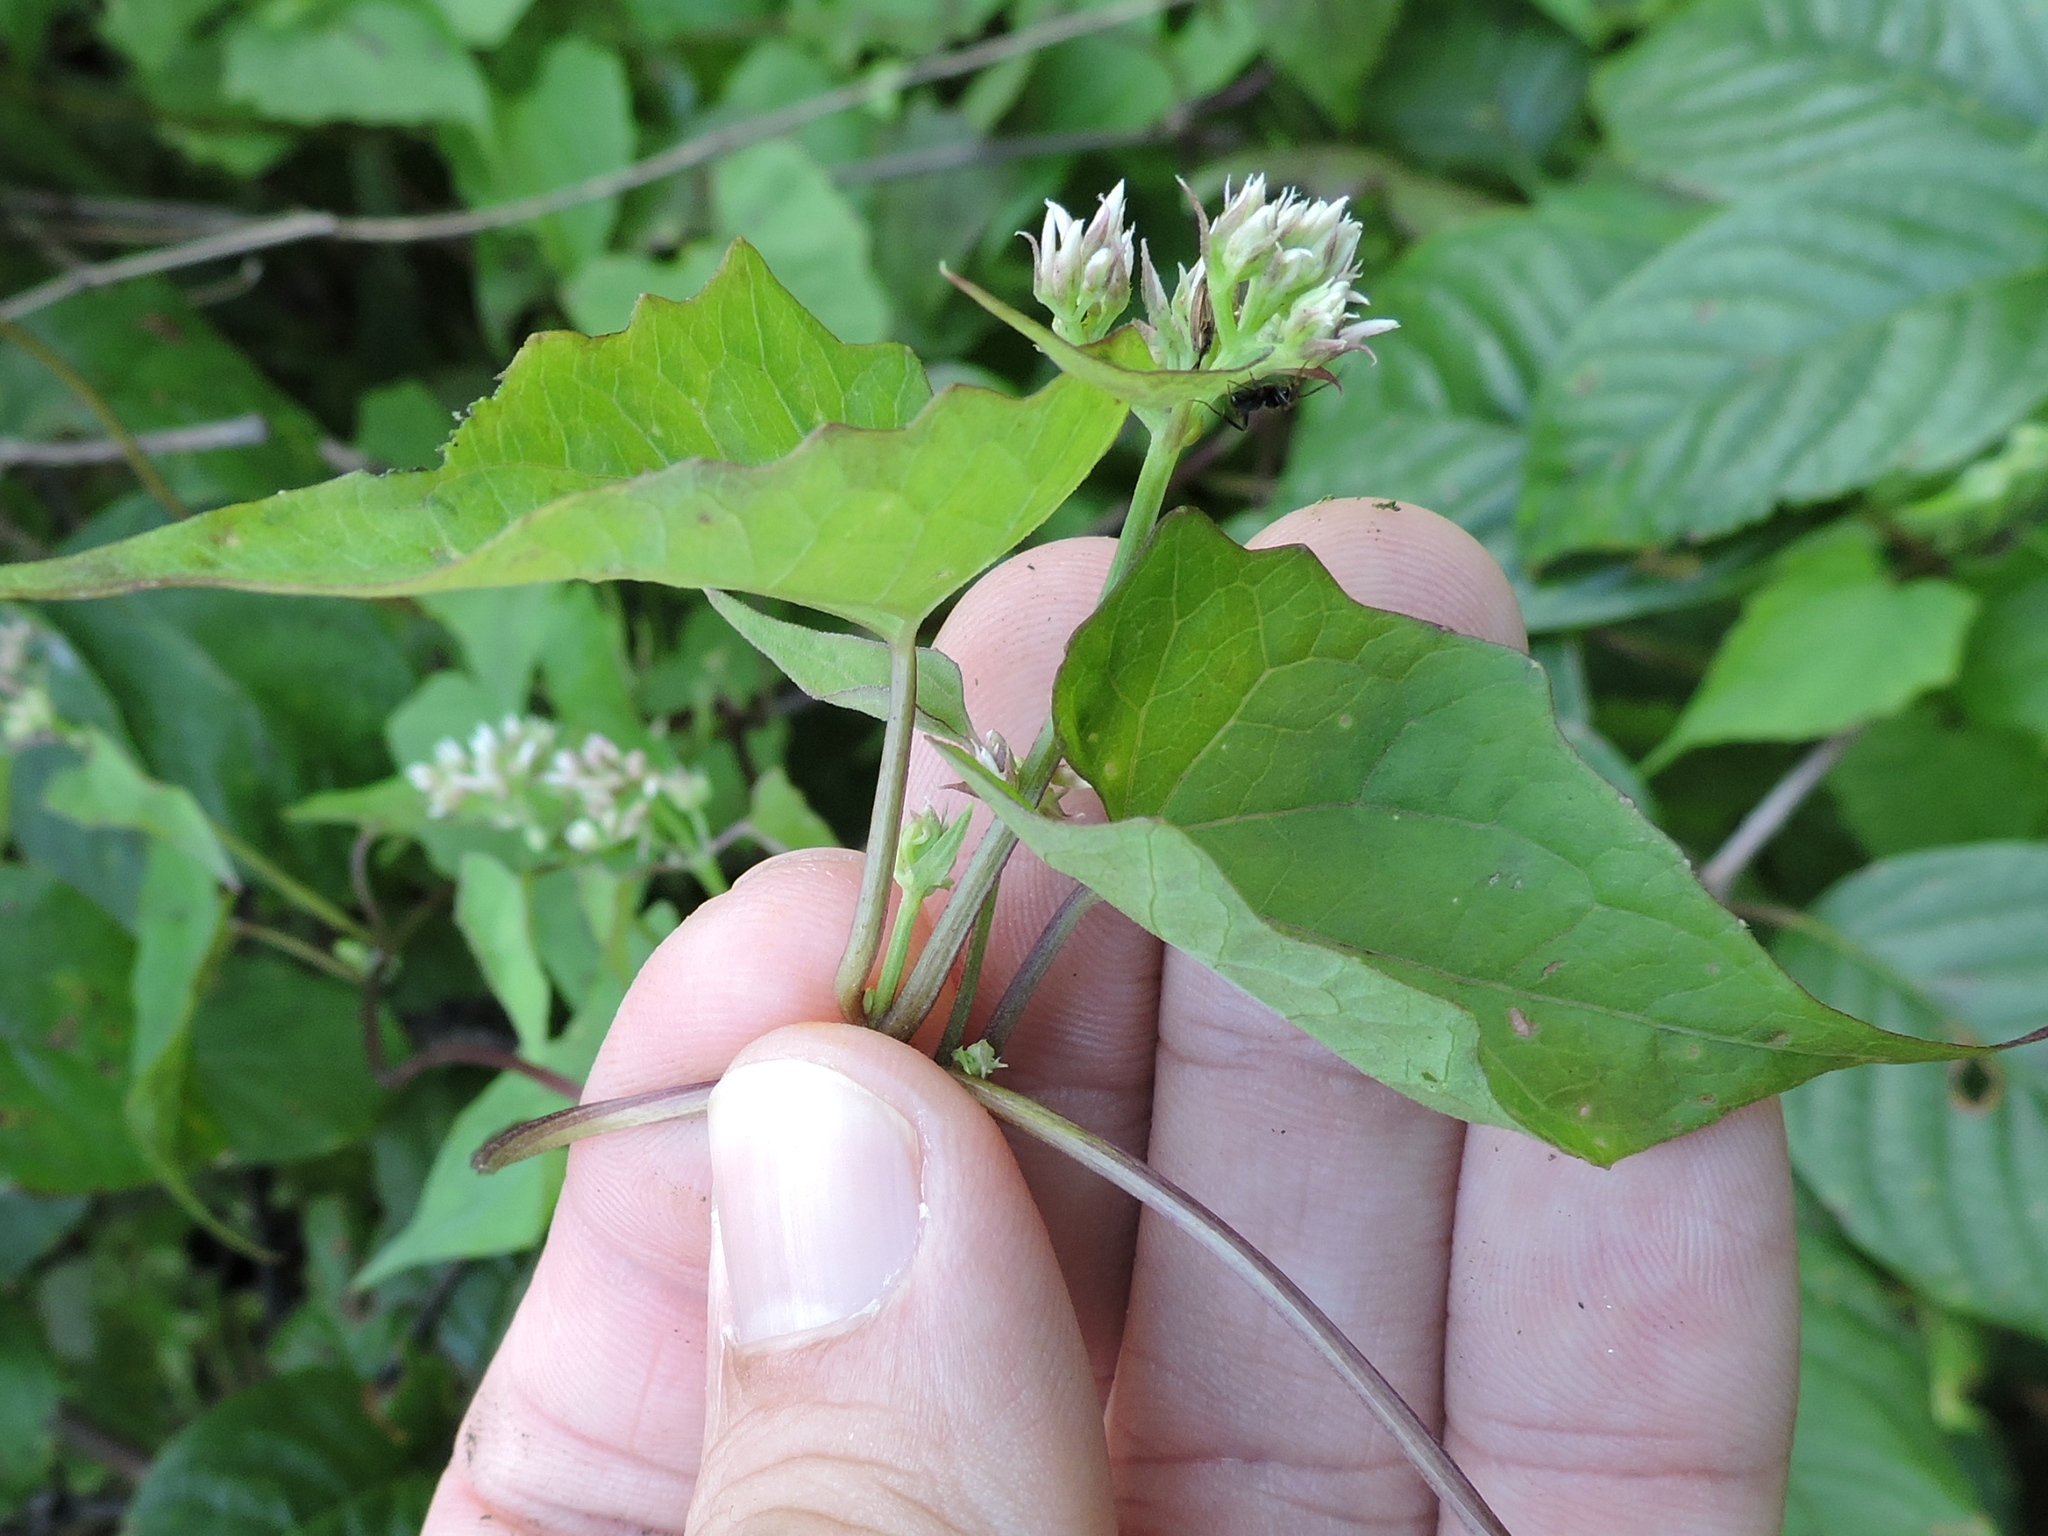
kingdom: Plantae
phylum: Tracheophyta
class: Magnoliopsida
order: Asterales
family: Asteraceae
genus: Mikania
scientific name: Mikania scandens
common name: Climbing hempvine
